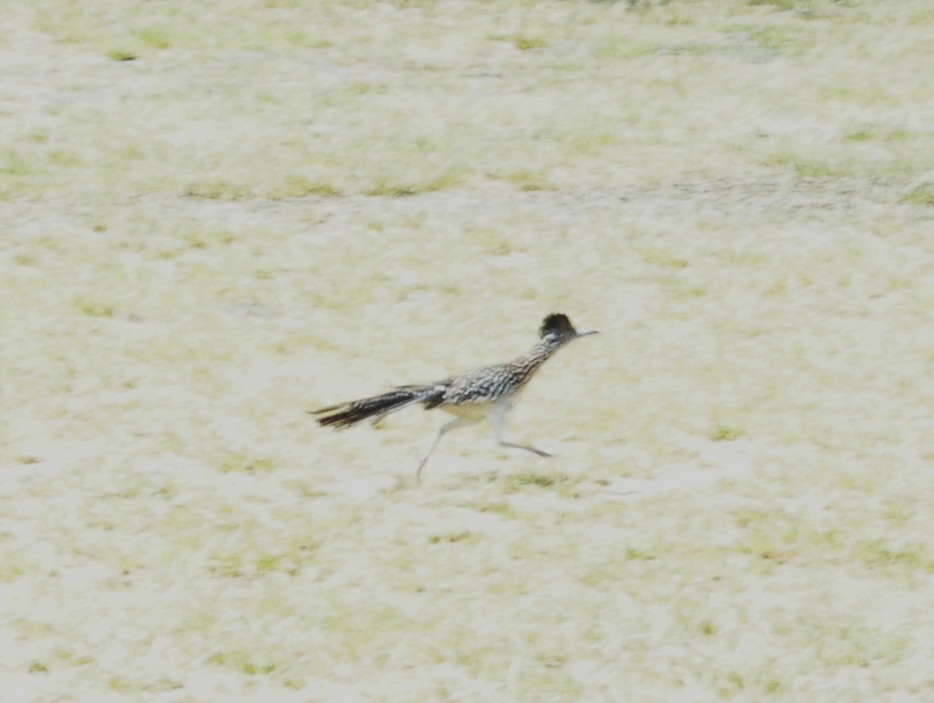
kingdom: Animalia
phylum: Chordata
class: Aves
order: Cuculiformes
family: Cuculidae
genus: Geococcyx
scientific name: Geococcyx californianus
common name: Greater roadrunner
